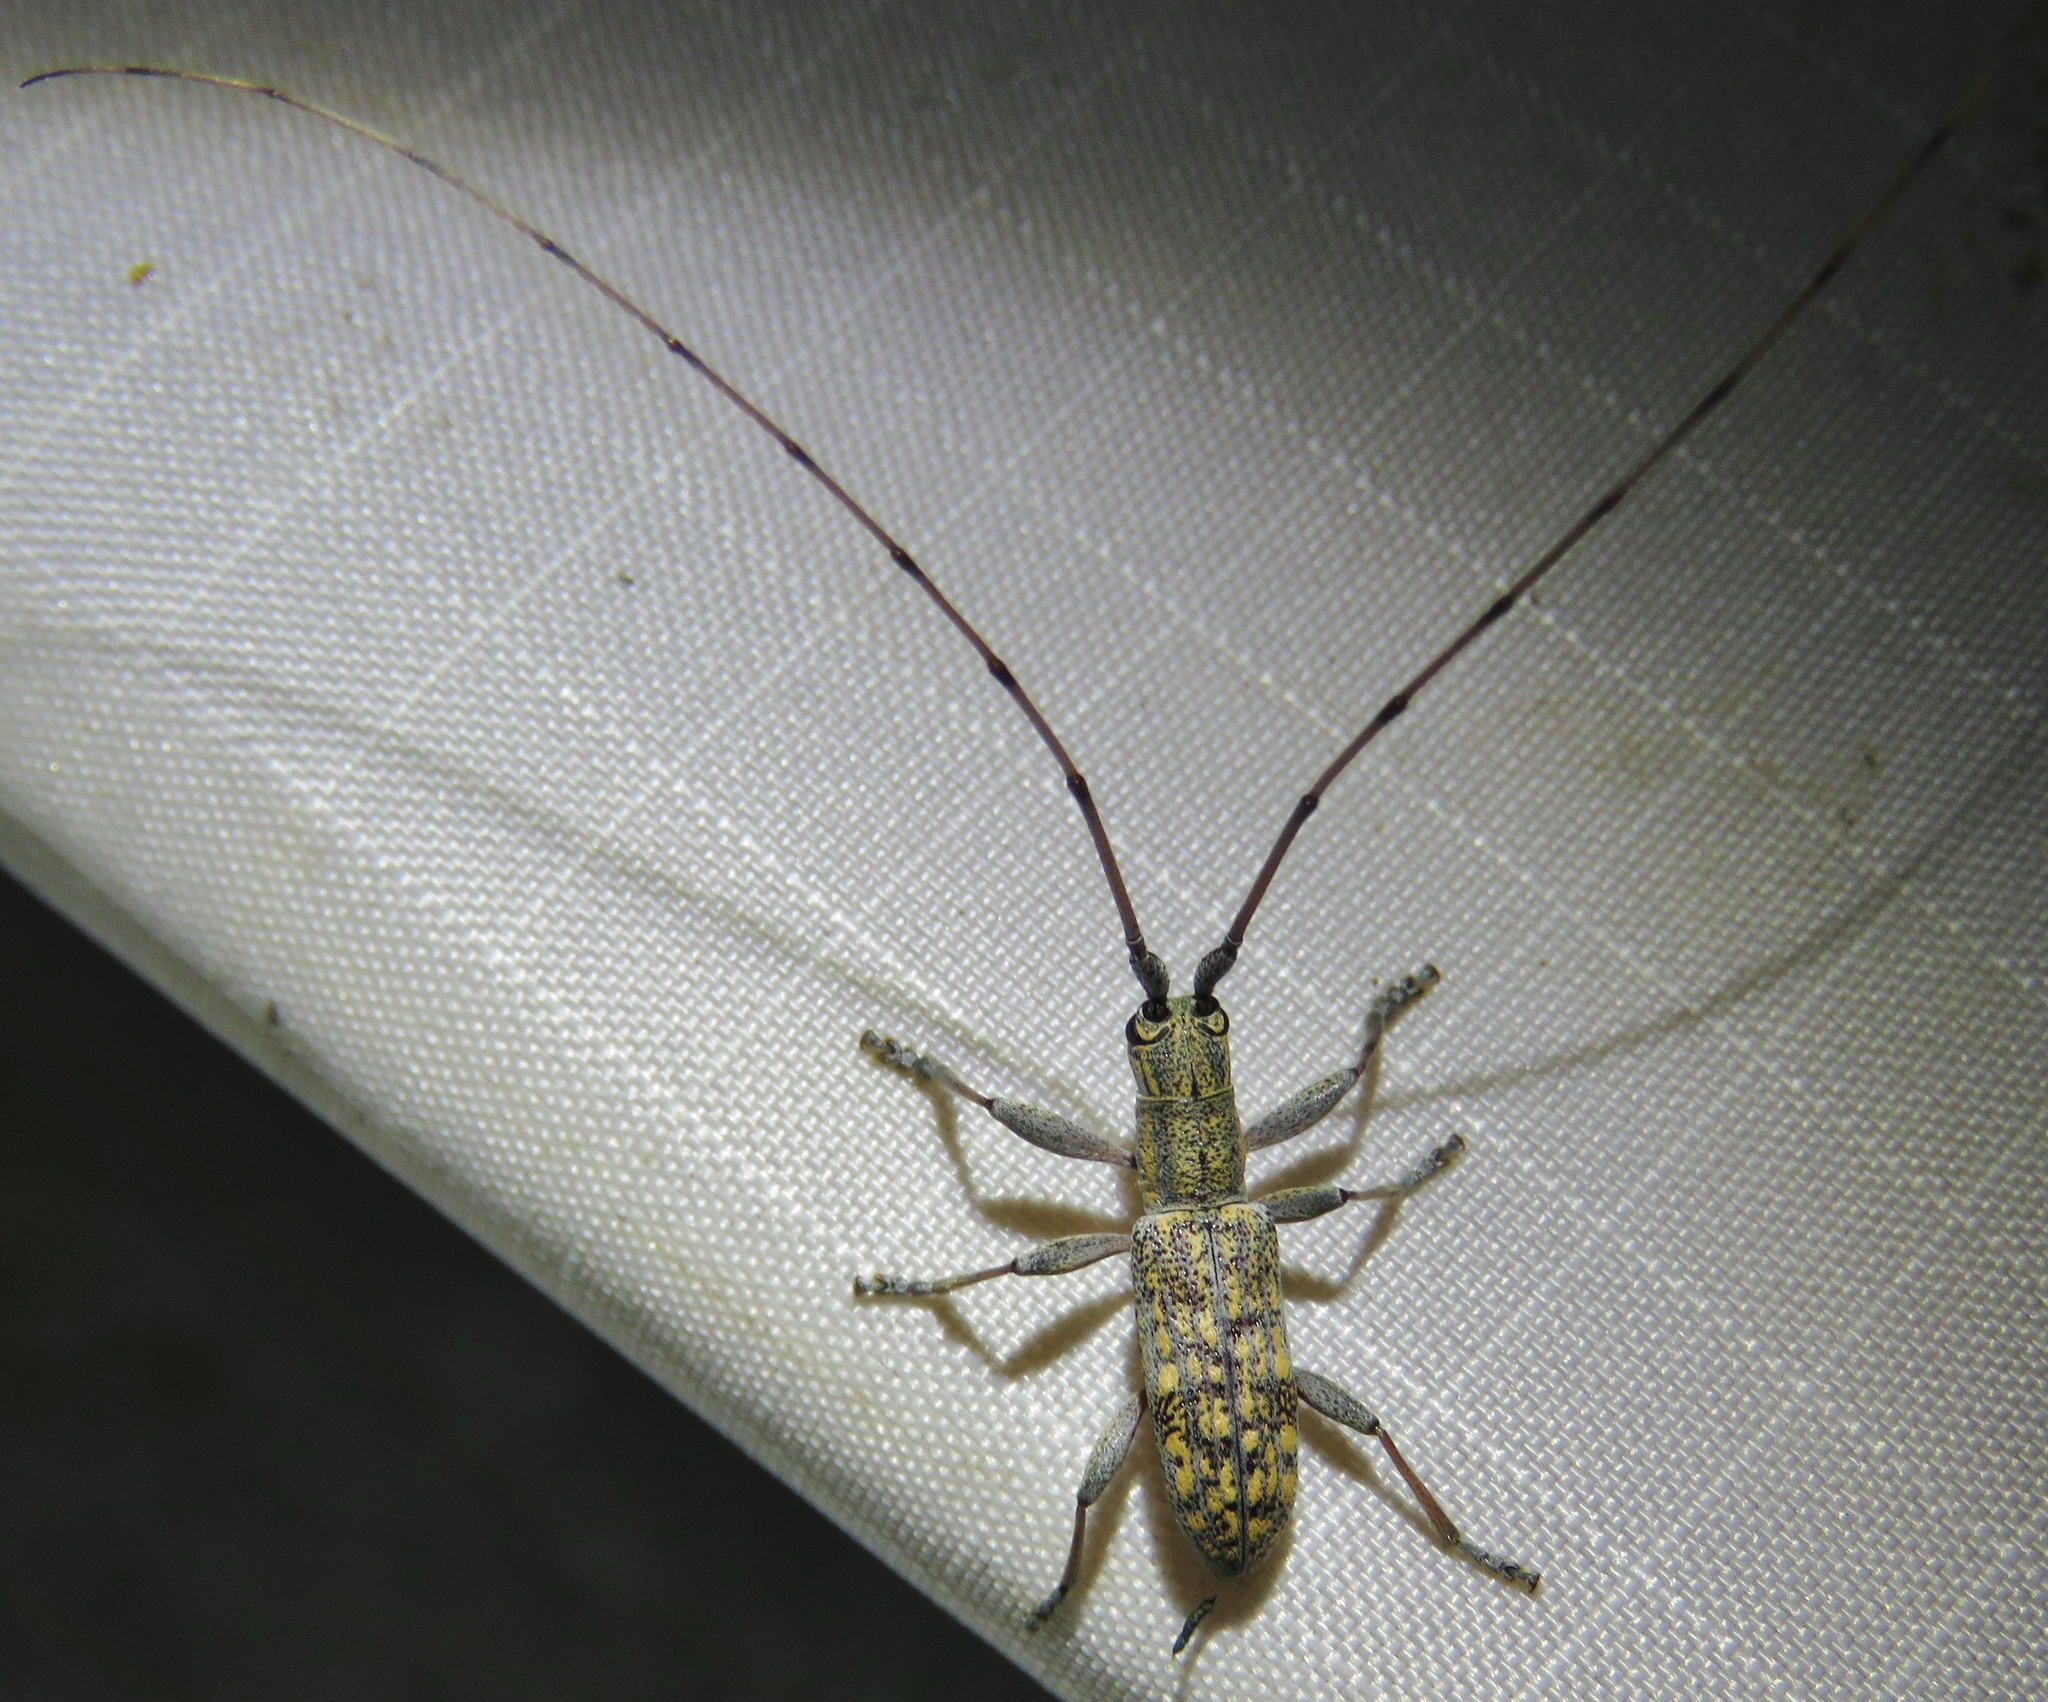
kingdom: Animalia
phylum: Arthropoda
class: Insecta
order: Coleoptera
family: Cerambycidae
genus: Dorcaschema
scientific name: Dorcaschema alternatum
